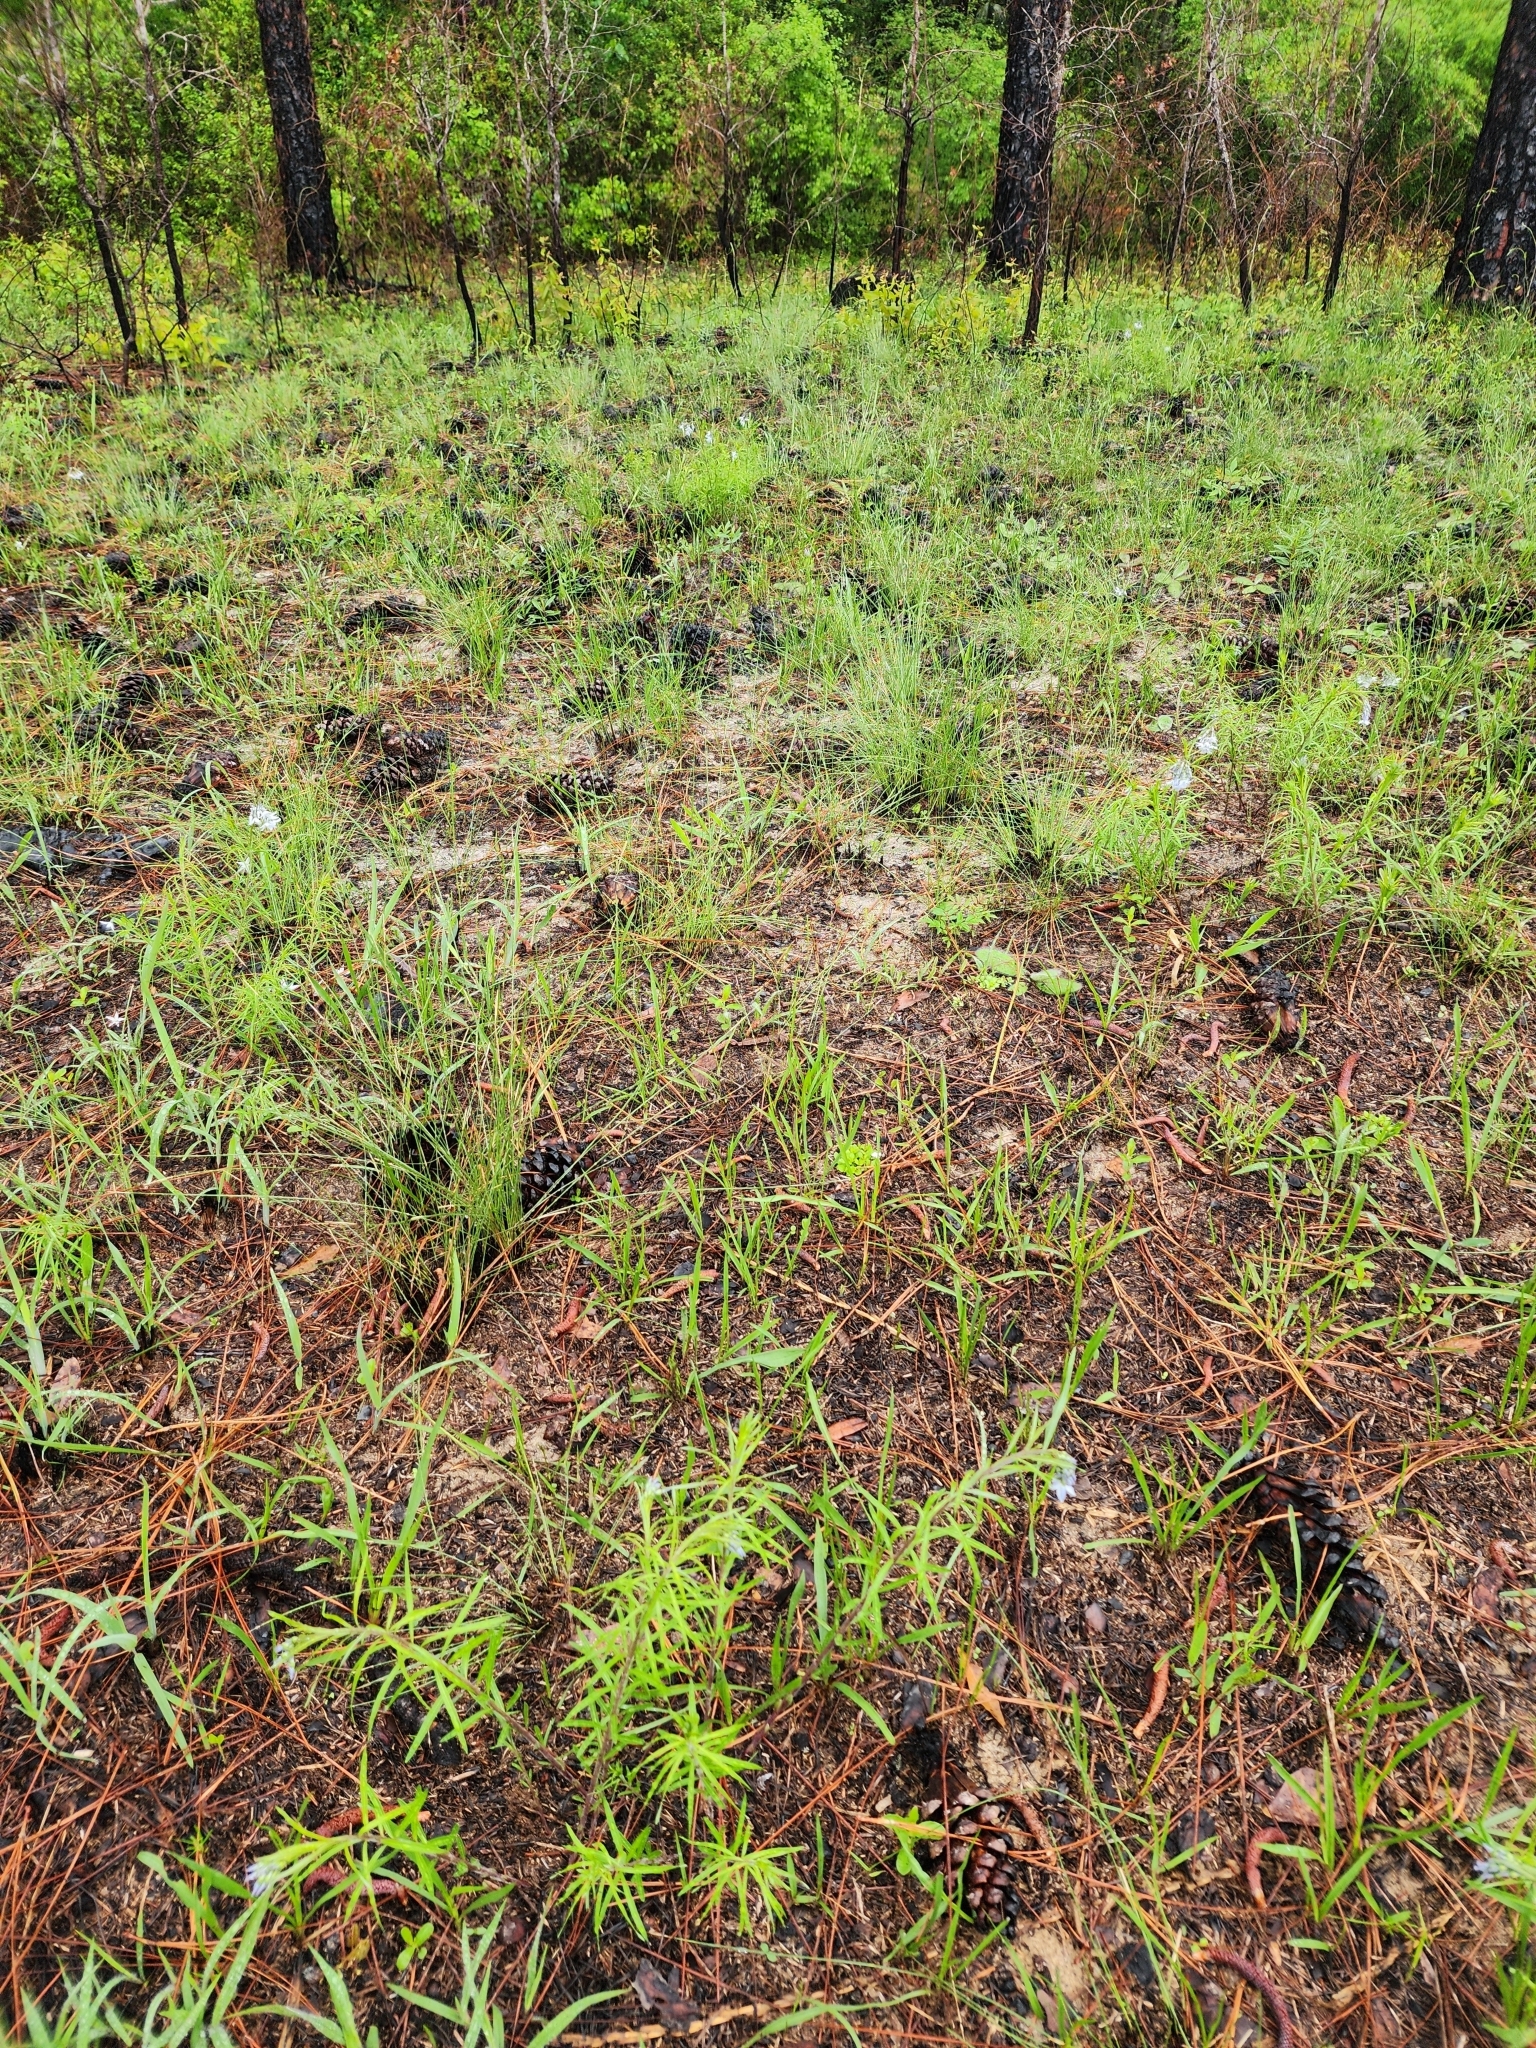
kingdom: Plantae
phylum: Tracheophyta
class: Magnoliopsida
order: Gentianales
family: Apocynaceae
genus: Amsonia
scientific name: Amsonia ciliata
